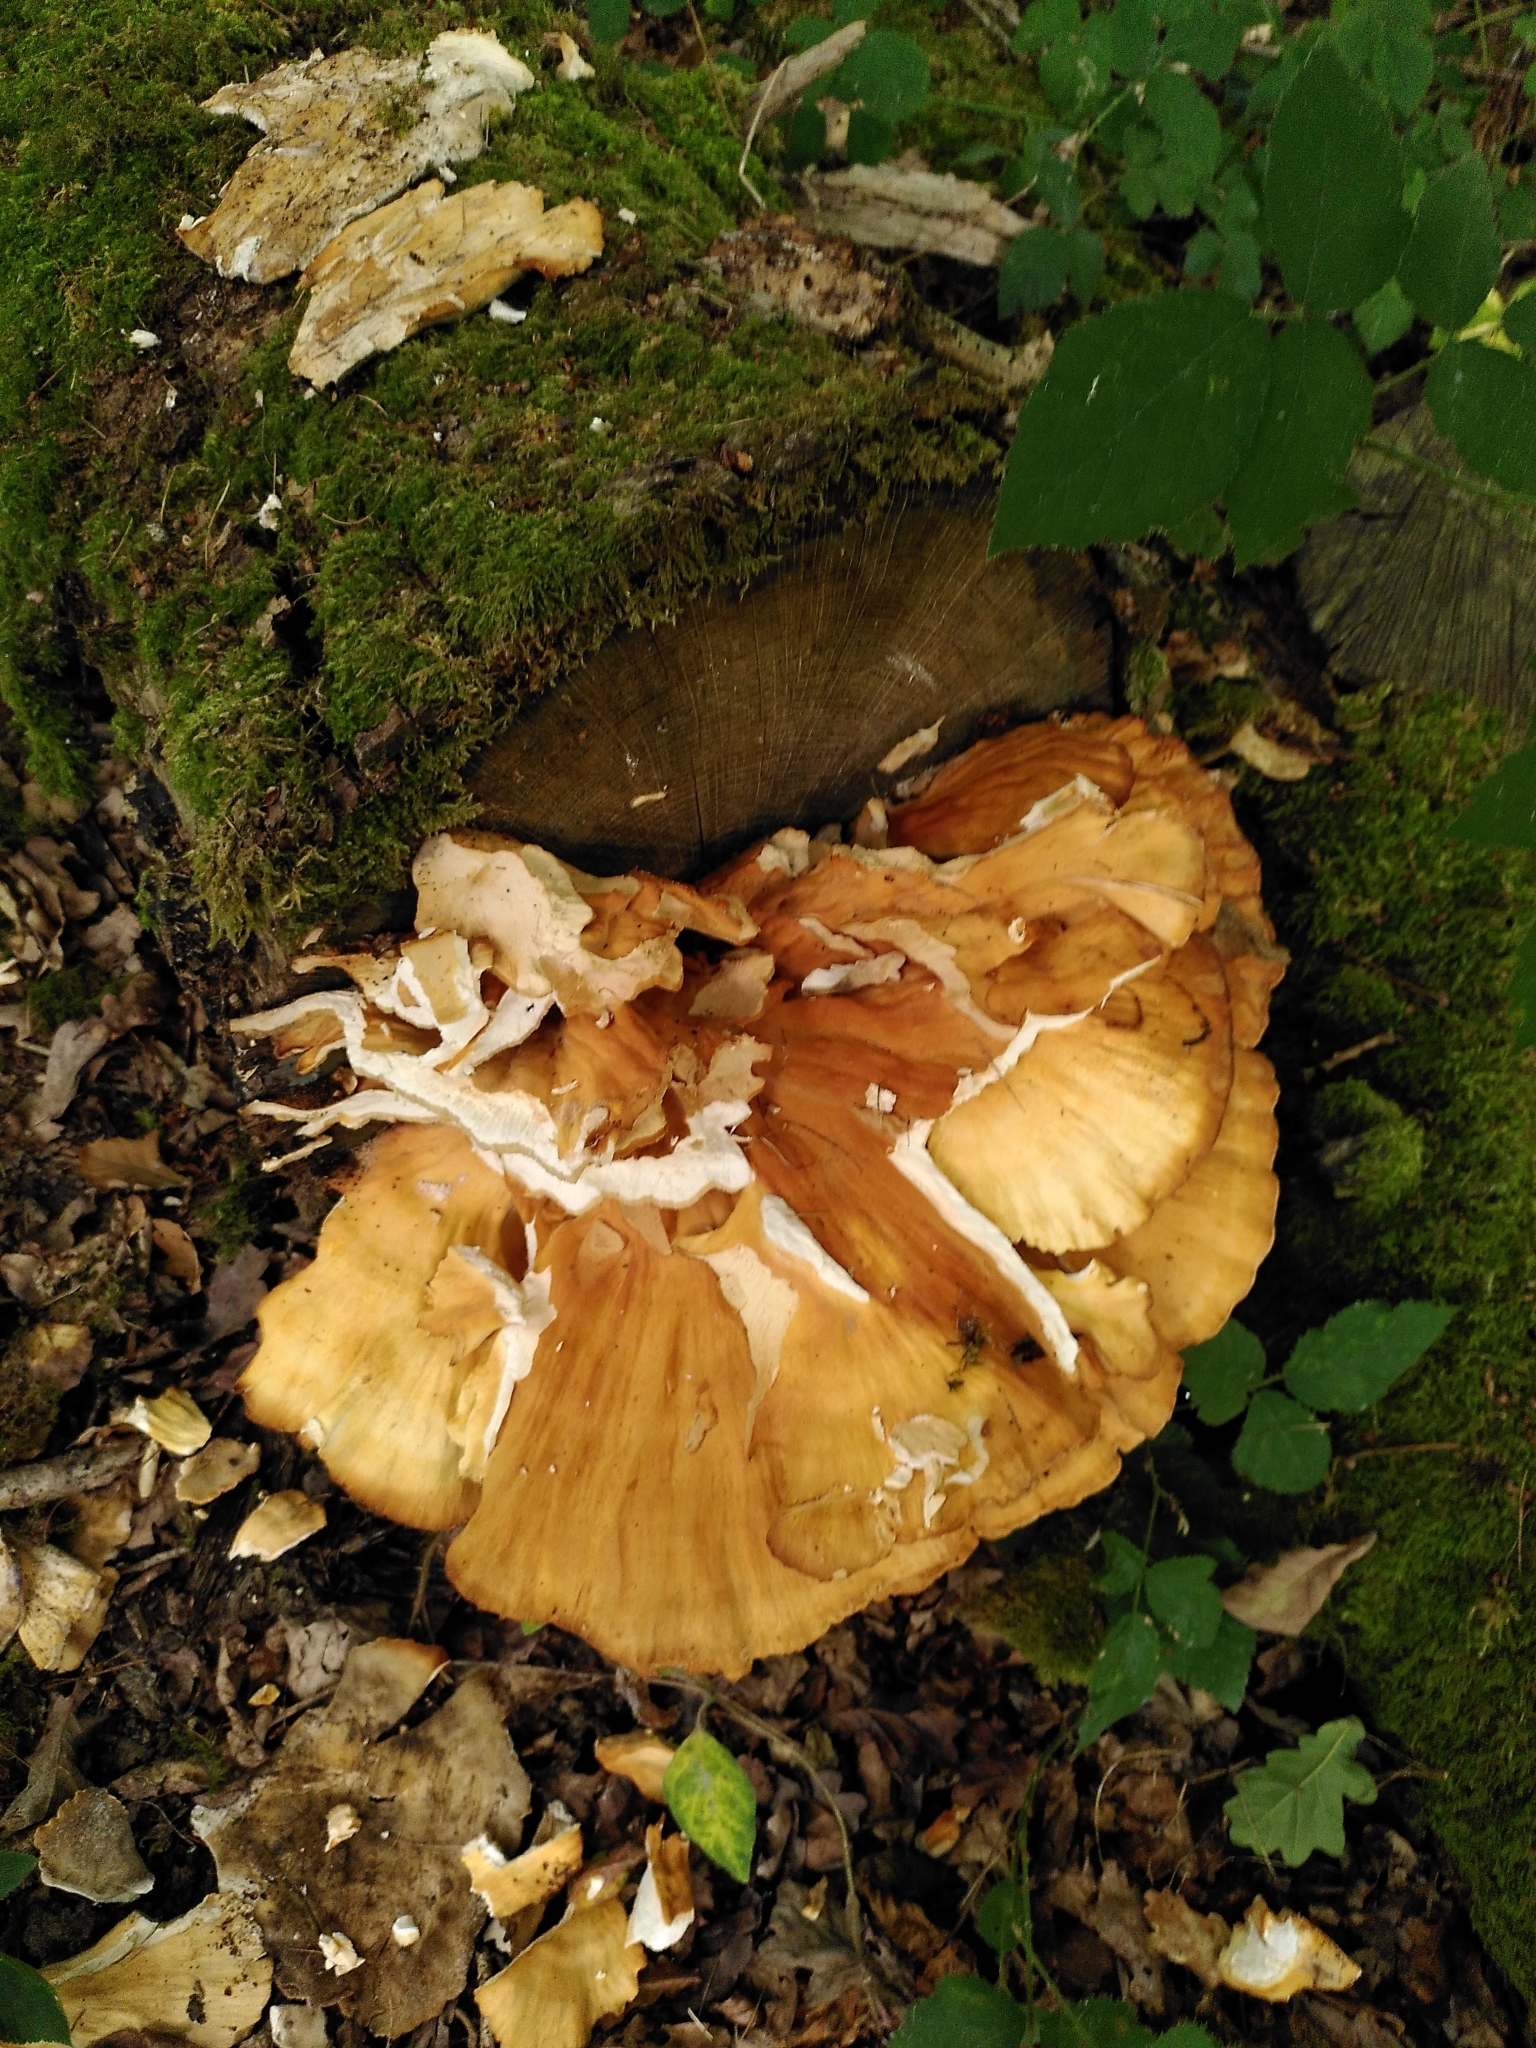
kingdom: Fungi
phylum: Basidiomycota
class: Agaricomycetes
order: Polyporales
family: Laetiporaceae
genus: Laetiporus
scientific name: Laetiporus sulphureus
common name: Chicken of the woods
